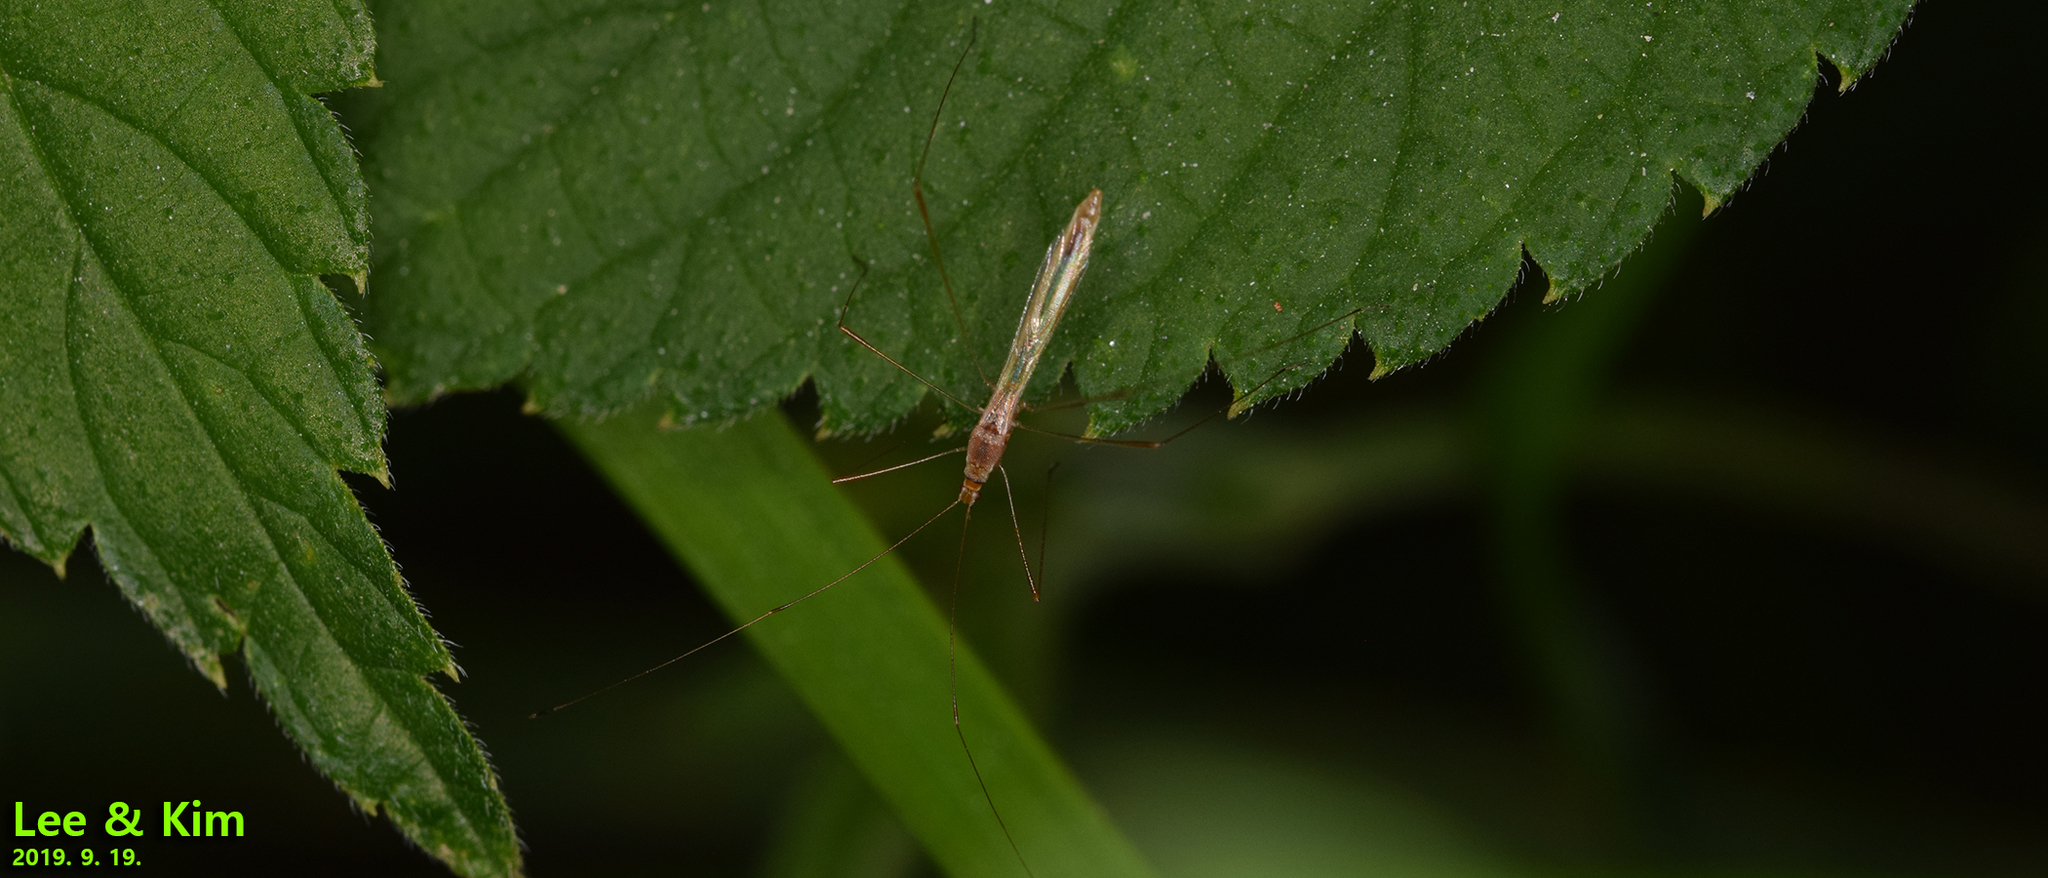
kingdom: Animalia
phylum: Arthropoda
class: Insecta
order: Hemiptera
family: Berytidae
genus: Yemma
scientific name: Yemma exilis
